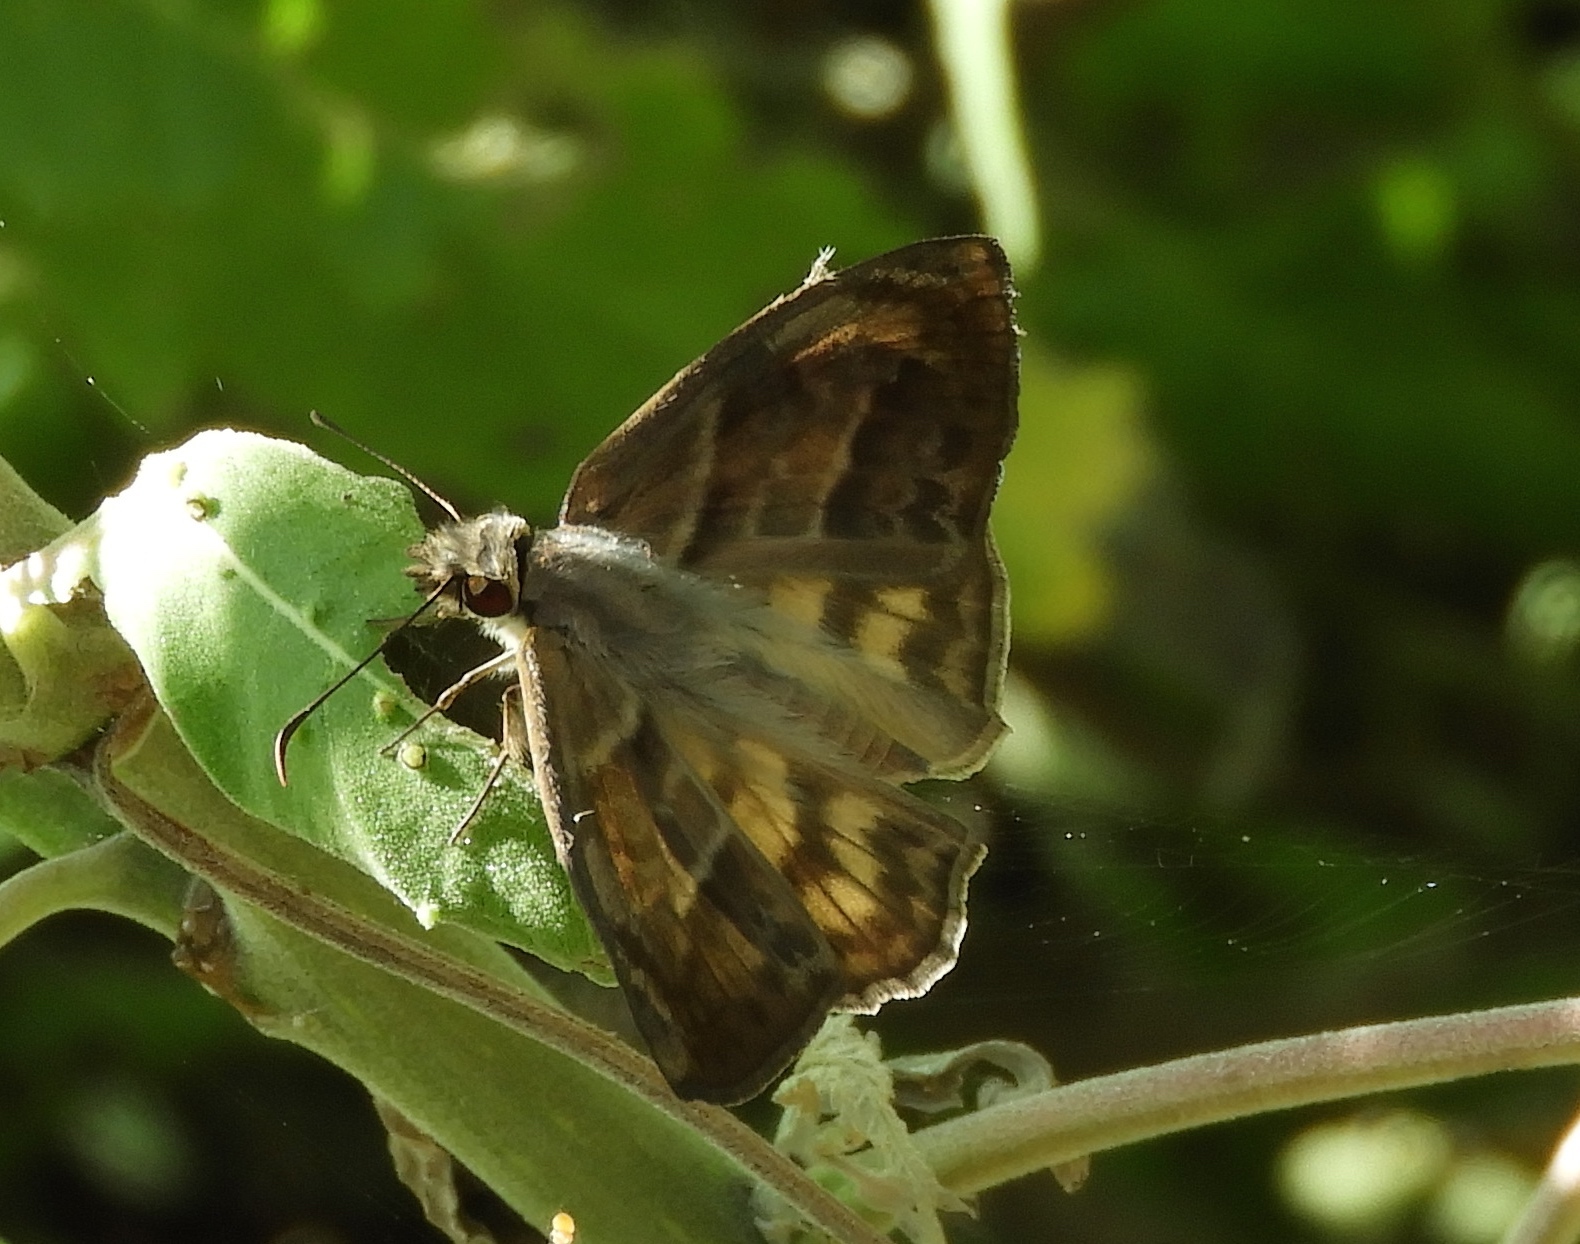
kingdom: Animalia
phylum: Arthropoda
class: Insecta
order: Lepidoptera
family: Hesperiidae
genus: Timochares
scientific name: Timochares trifasciata
